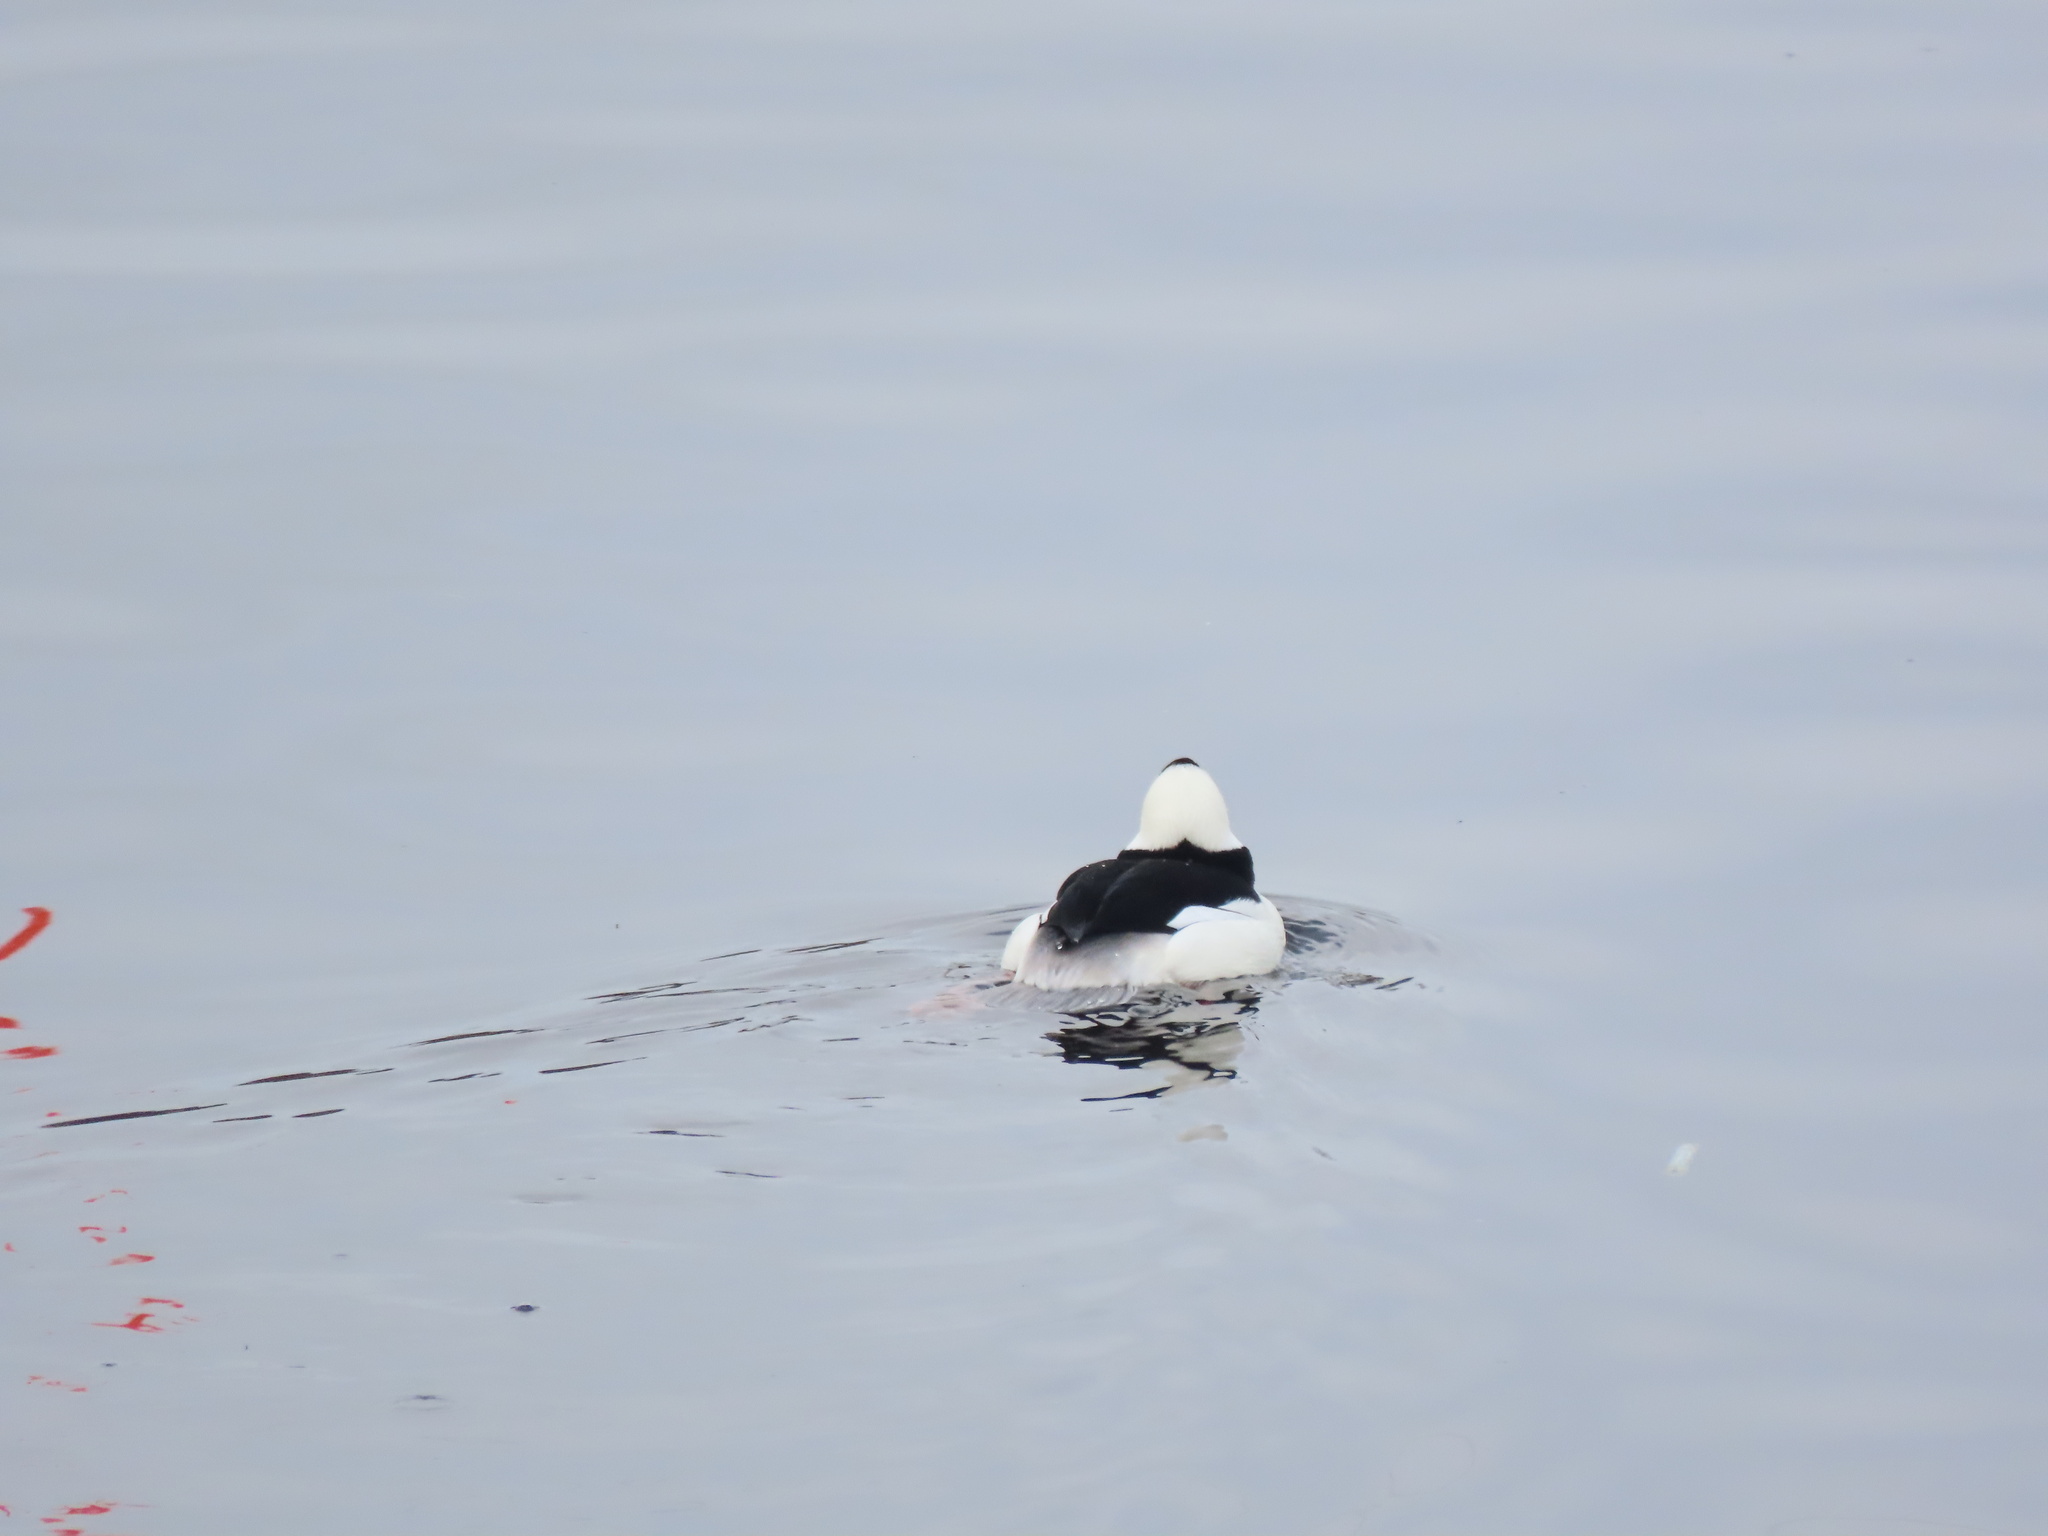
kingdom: Animalia
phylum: Chordata
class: Aves
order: Anseriformes
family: Anatidae
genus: Bucephala
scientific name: Bucephala albeola
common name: Bufflehead
